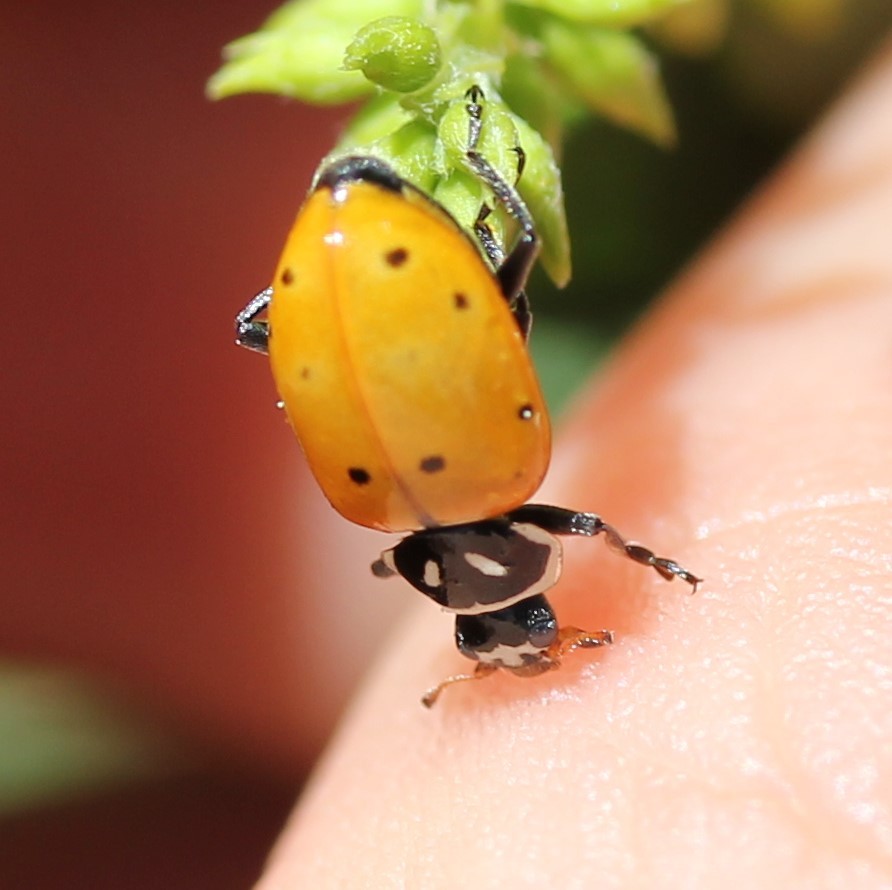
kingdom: Animalia
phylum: Arthropoda
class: Insecta
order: Coleoptera
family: Coccinellidae
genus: Hippodamia
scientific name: Hippodamia convergens
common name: Convergent lady beetle
